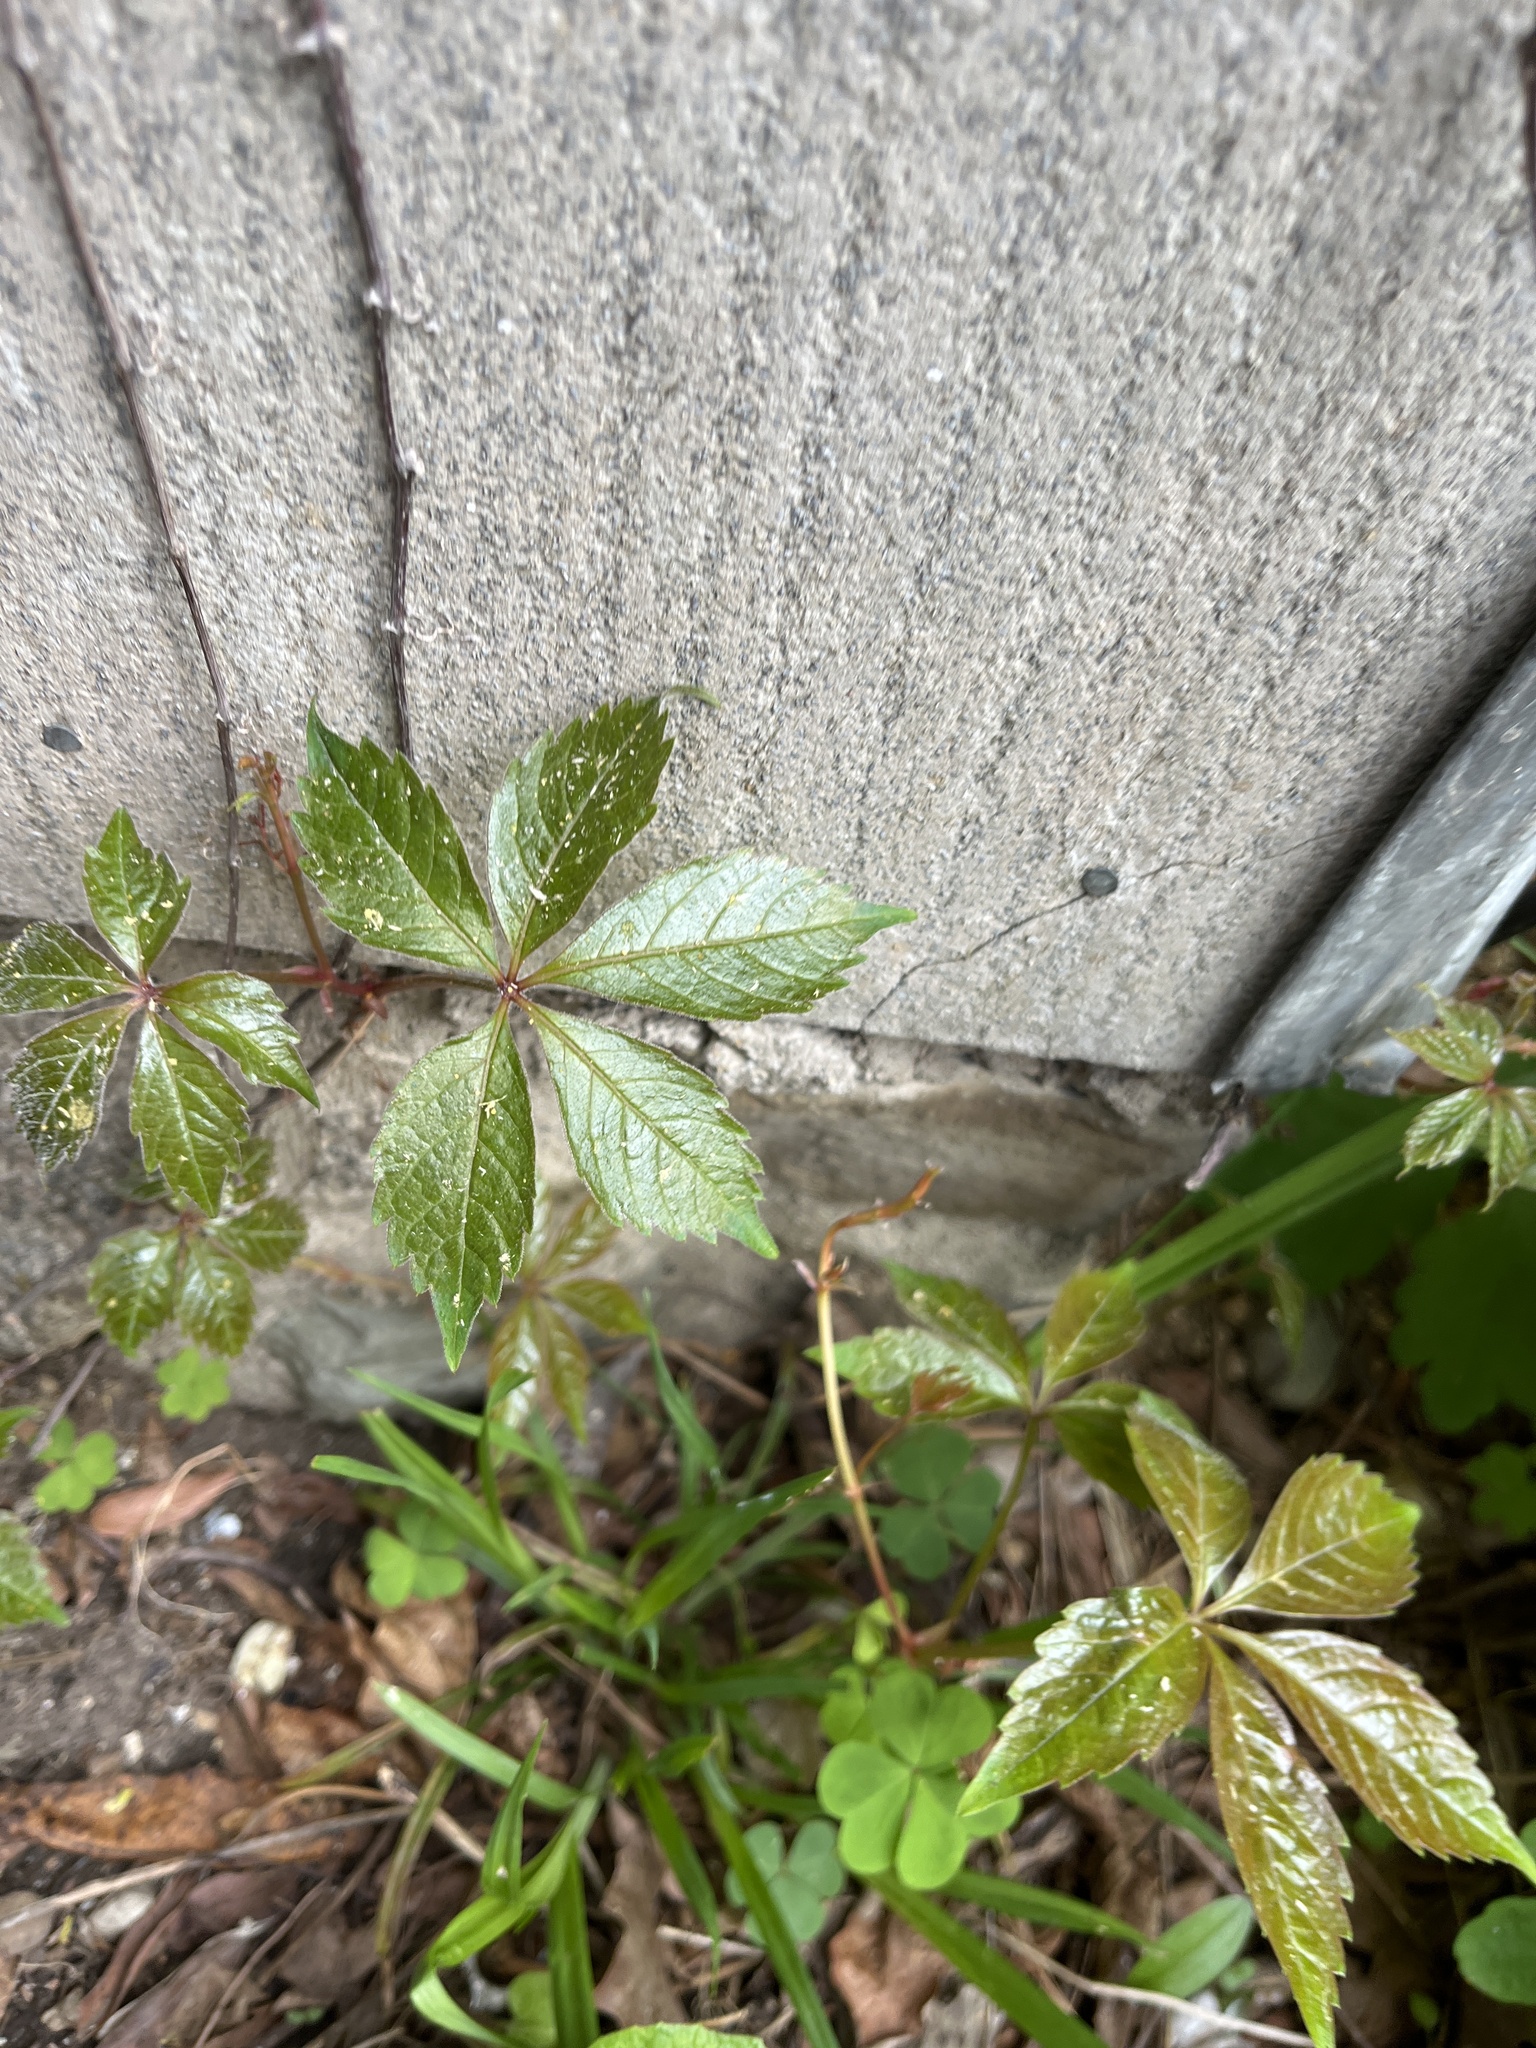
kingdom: Plantae
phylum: Tracheophyta
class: Magnoliopsida
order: Vitales
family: Vitaceae
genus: Parthenocissus
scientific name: Parthenocissus quinquefolia
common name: Virginia-creeper
